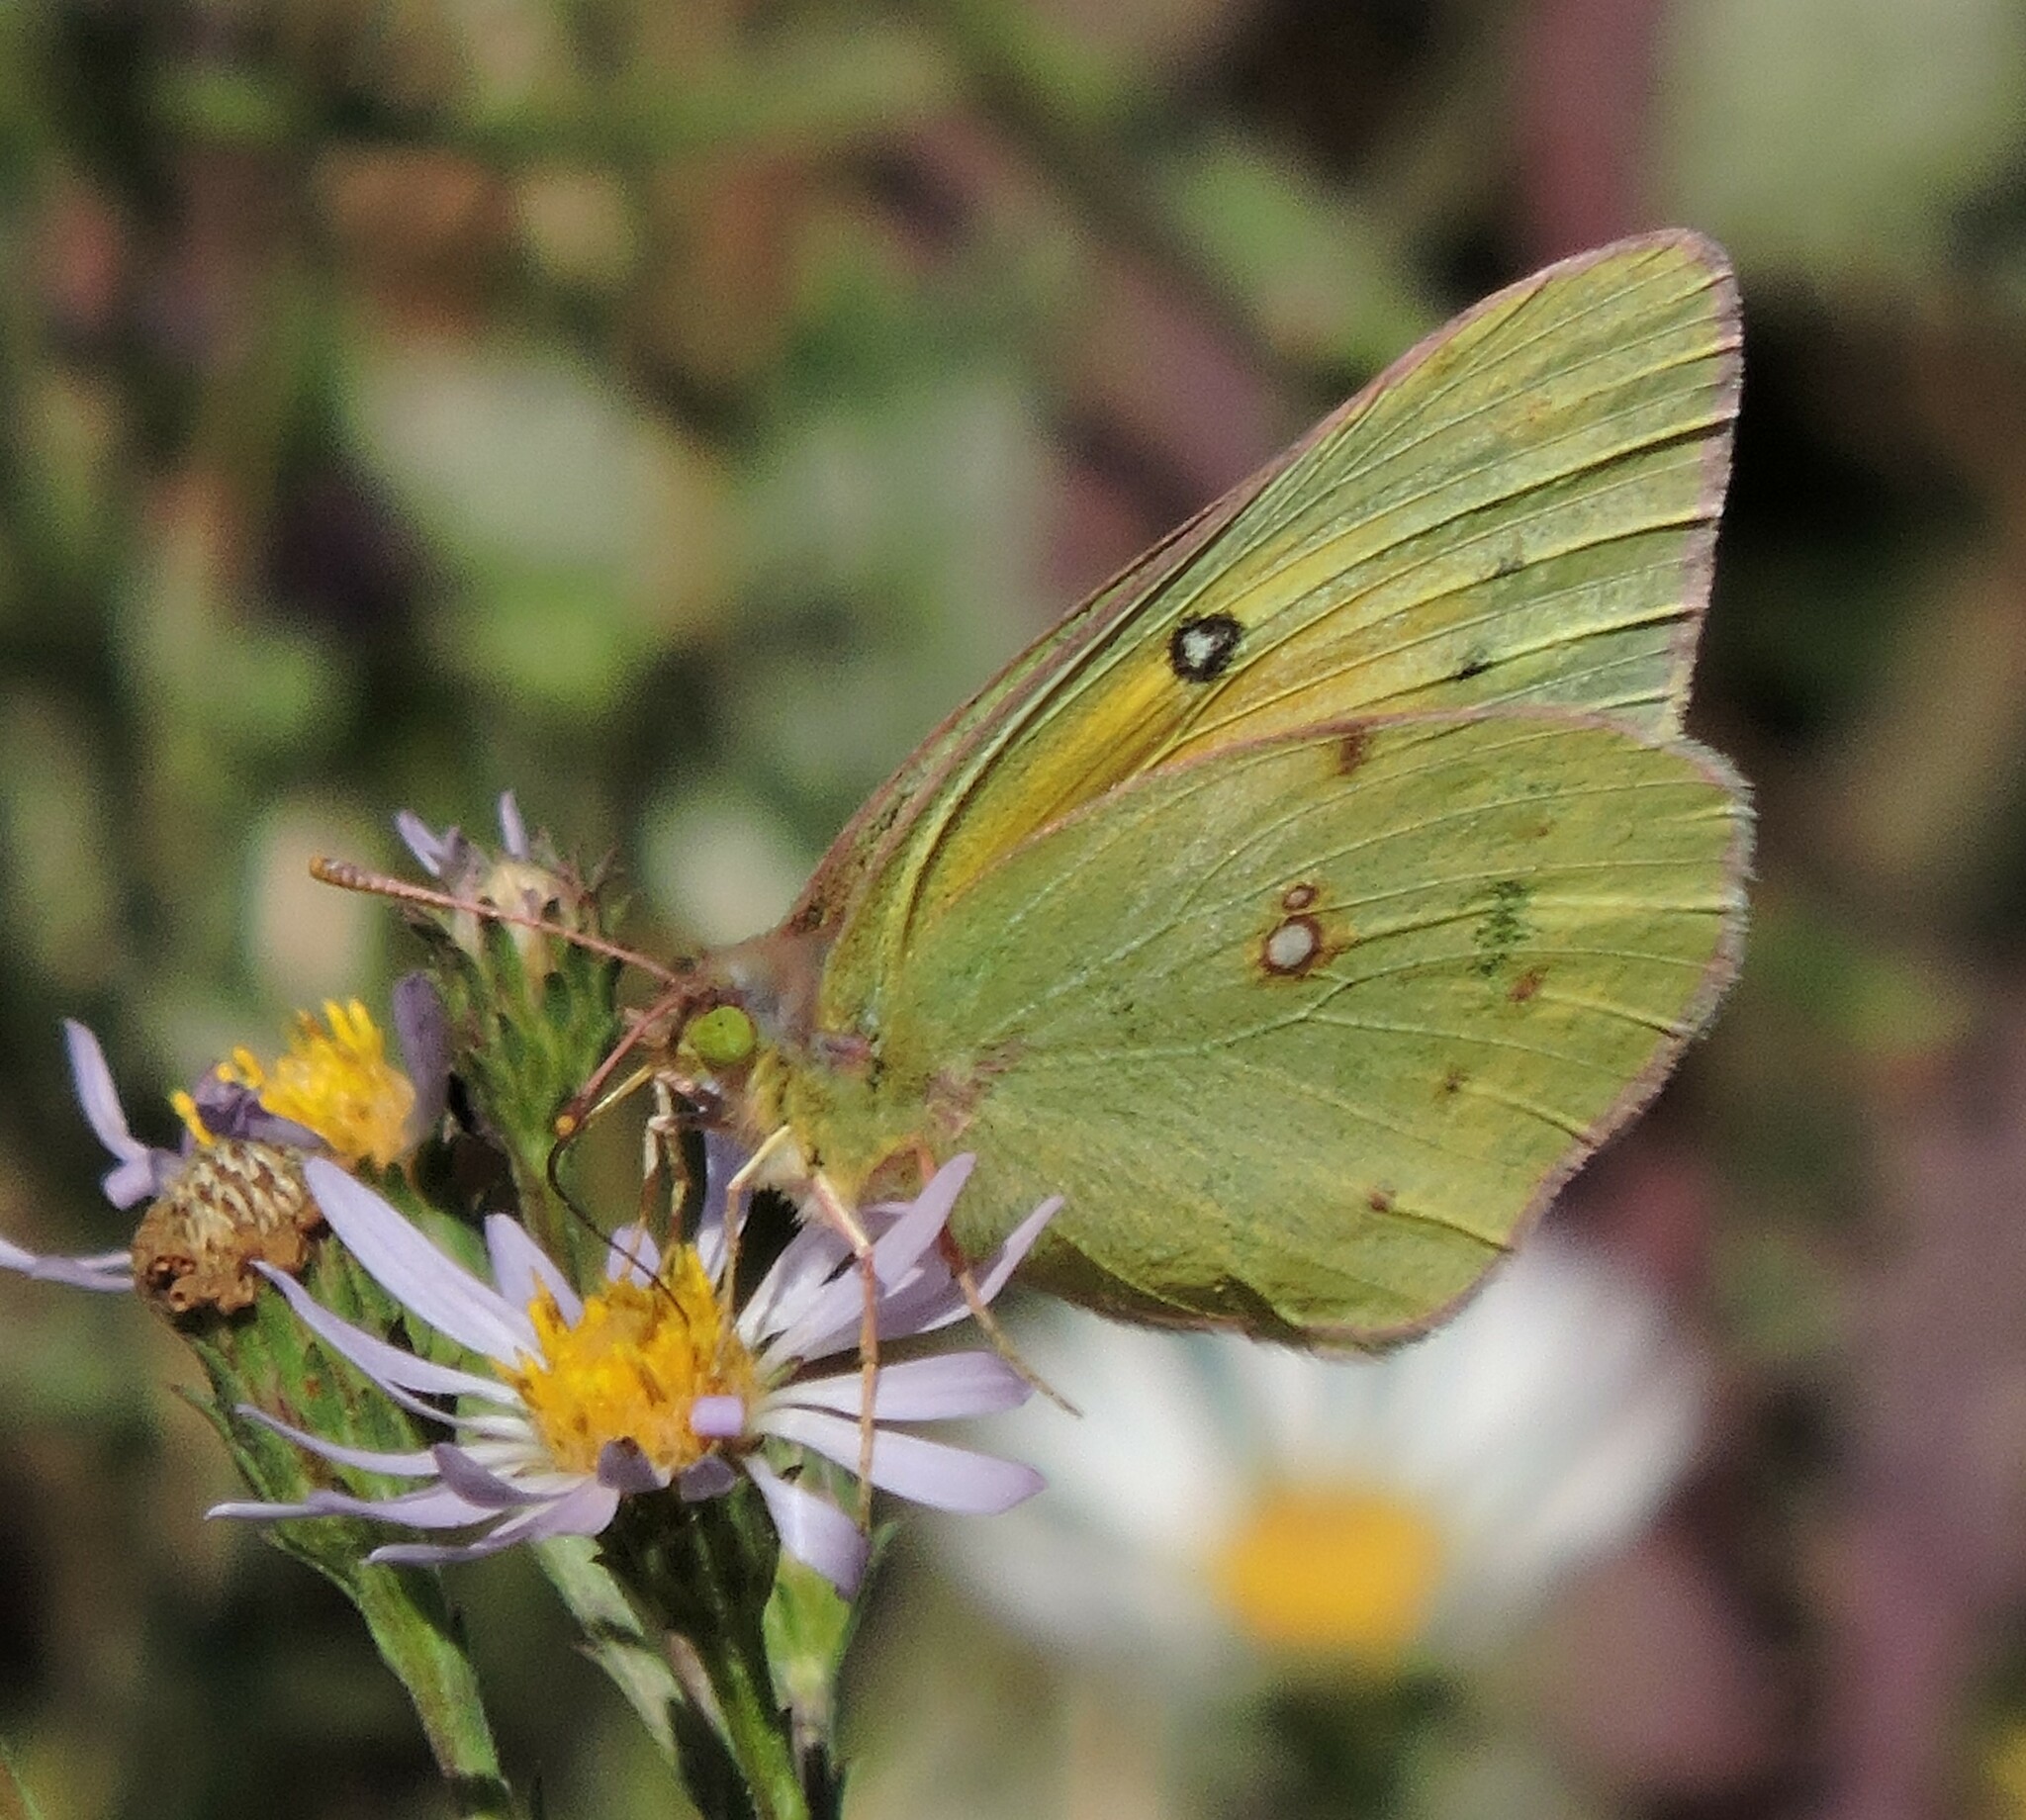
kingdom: Animalia
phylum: Arthropoda
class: Insecta
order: Lepidoptera
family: Pieridae
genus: Colias
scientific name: Colias eurytheme
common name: Alfalfa butterfly
